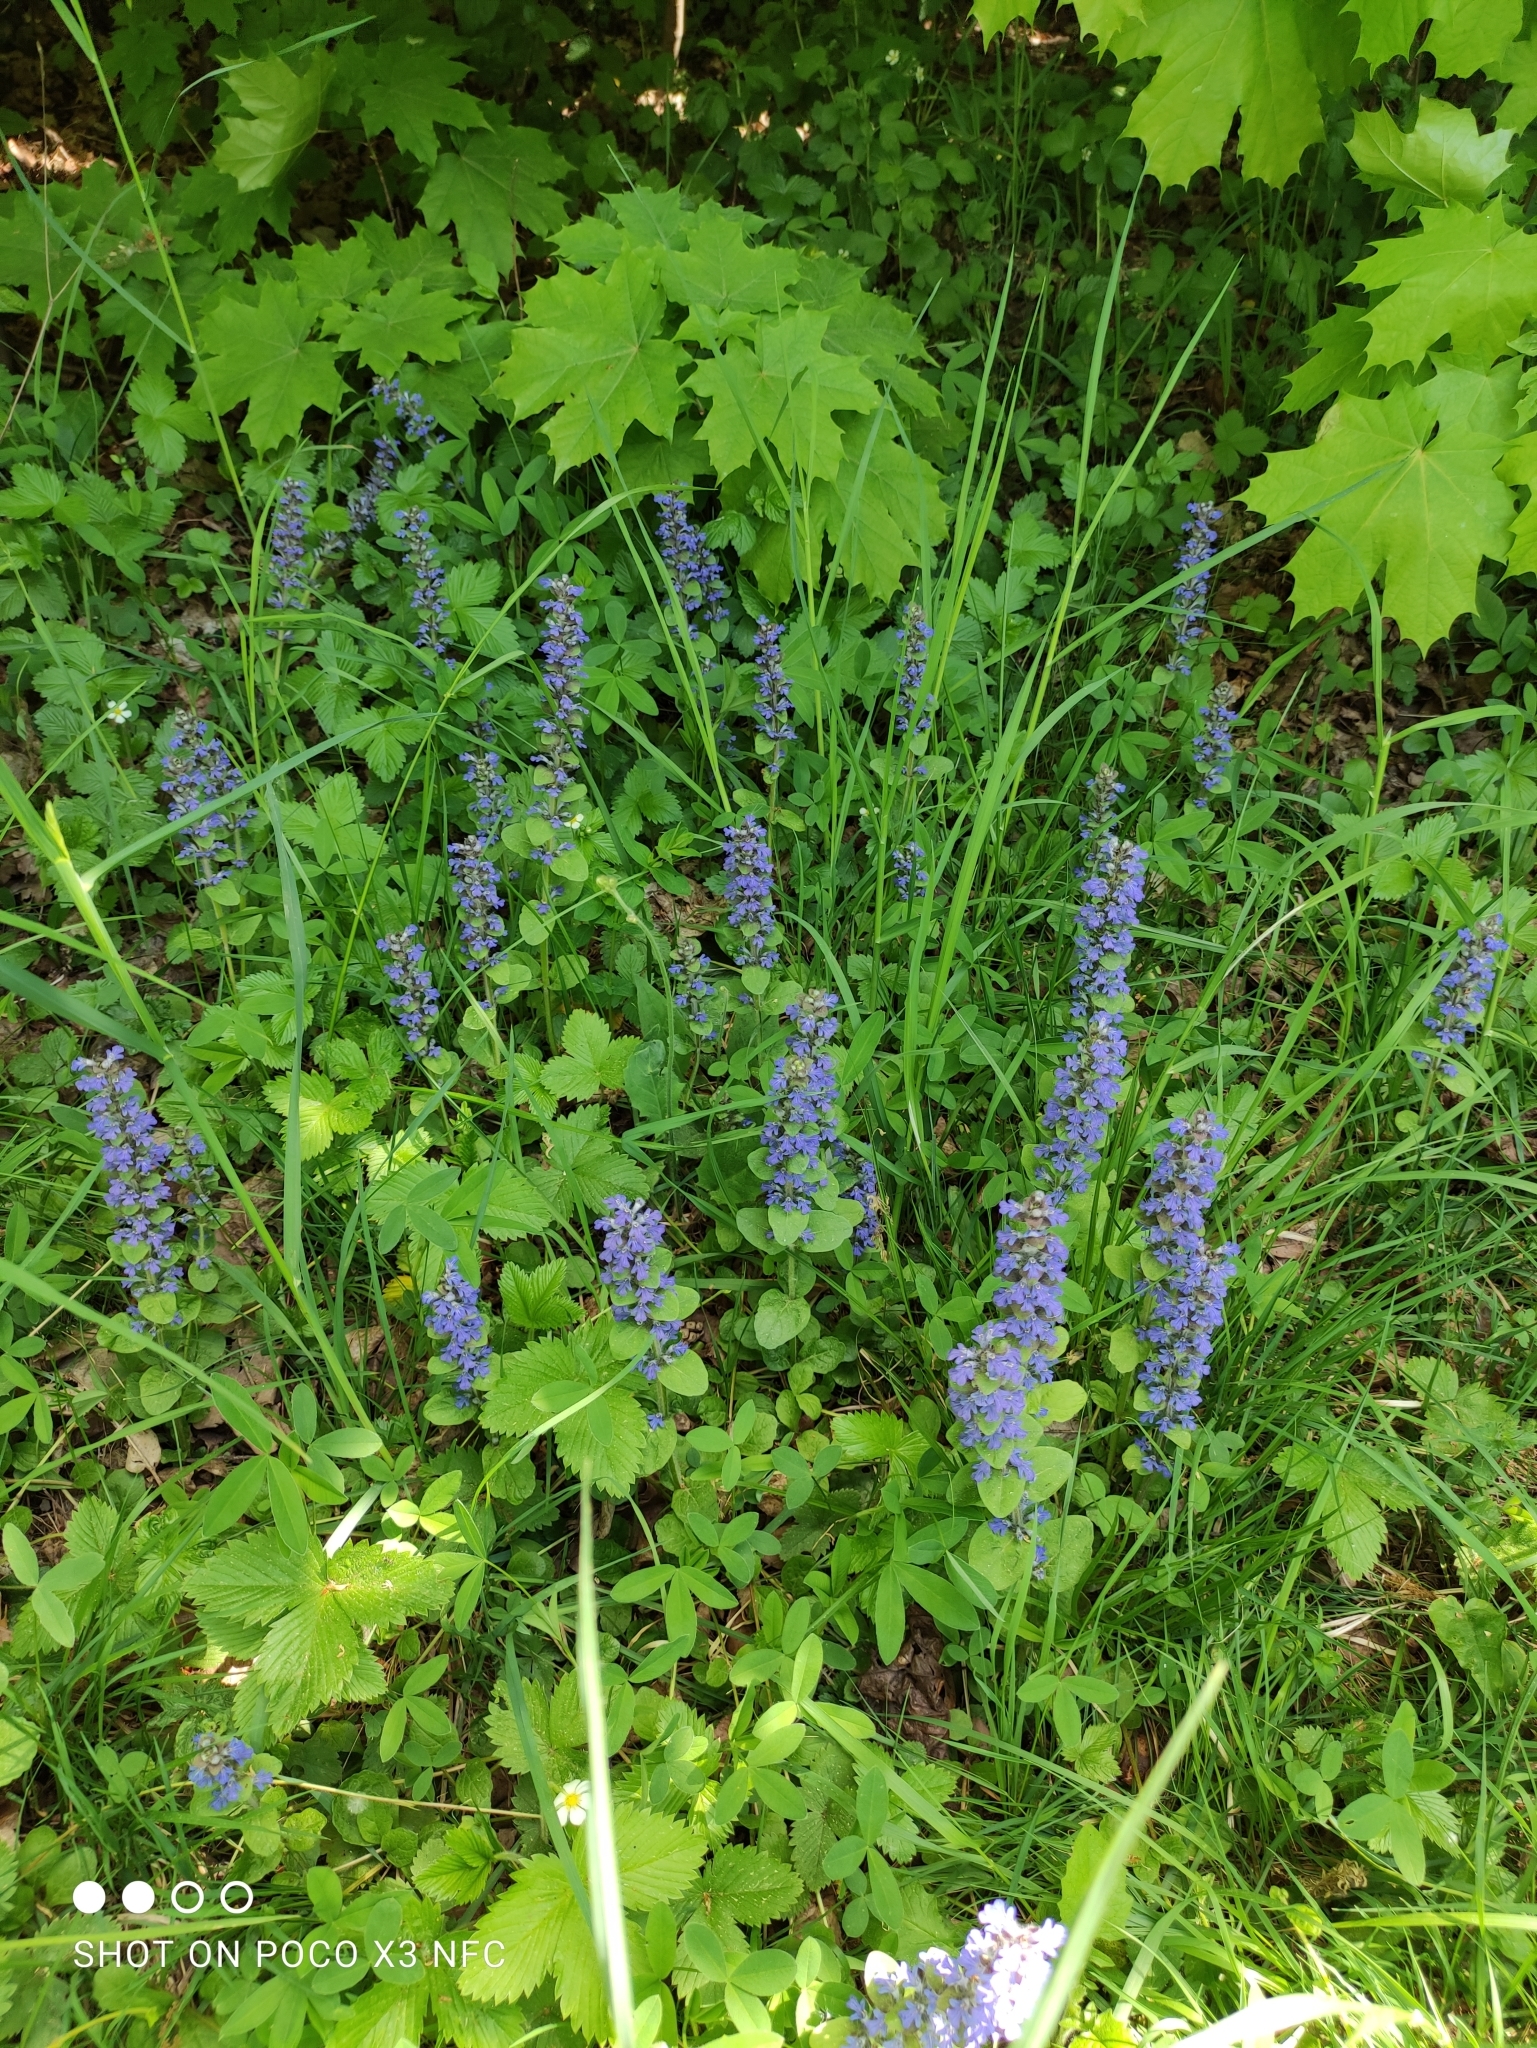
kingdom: Plantae
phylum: Tracheophyta
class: Magnoliopsida
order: Lamiales
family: Lamiaceae
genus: Ajuga
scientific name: Ajuga reptans
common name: Bugle
